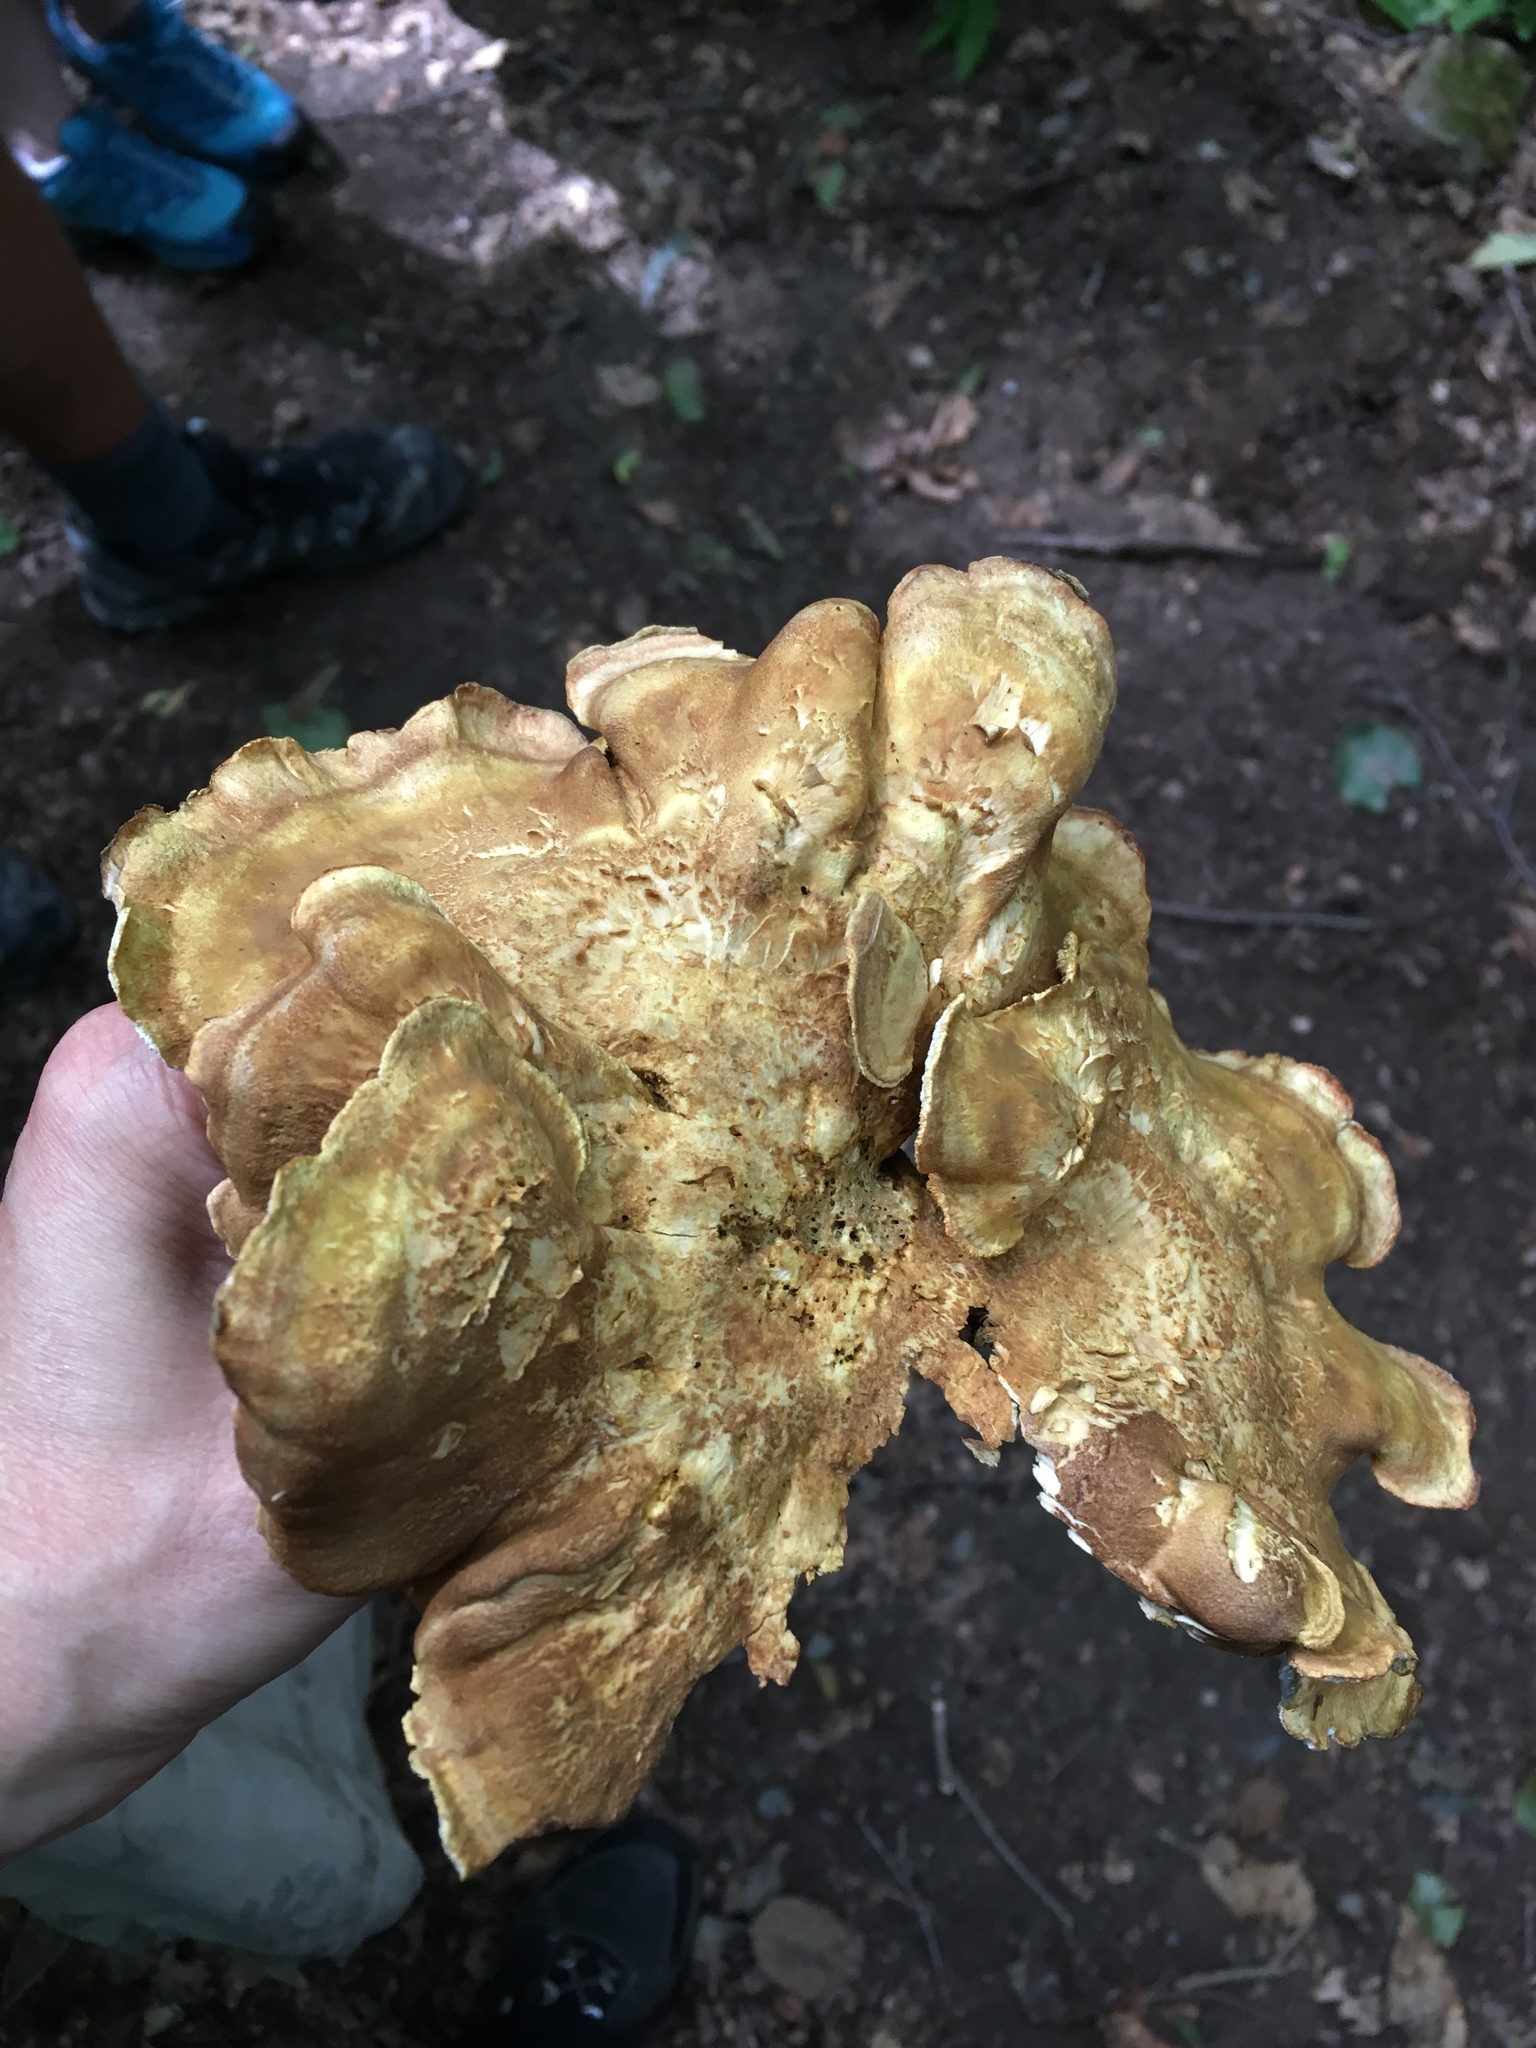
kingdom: Fungi
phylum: Basidiomycota
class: Agaricomycetes
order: Russulales
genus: Laeticutis
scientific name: Laeticutis cristata
